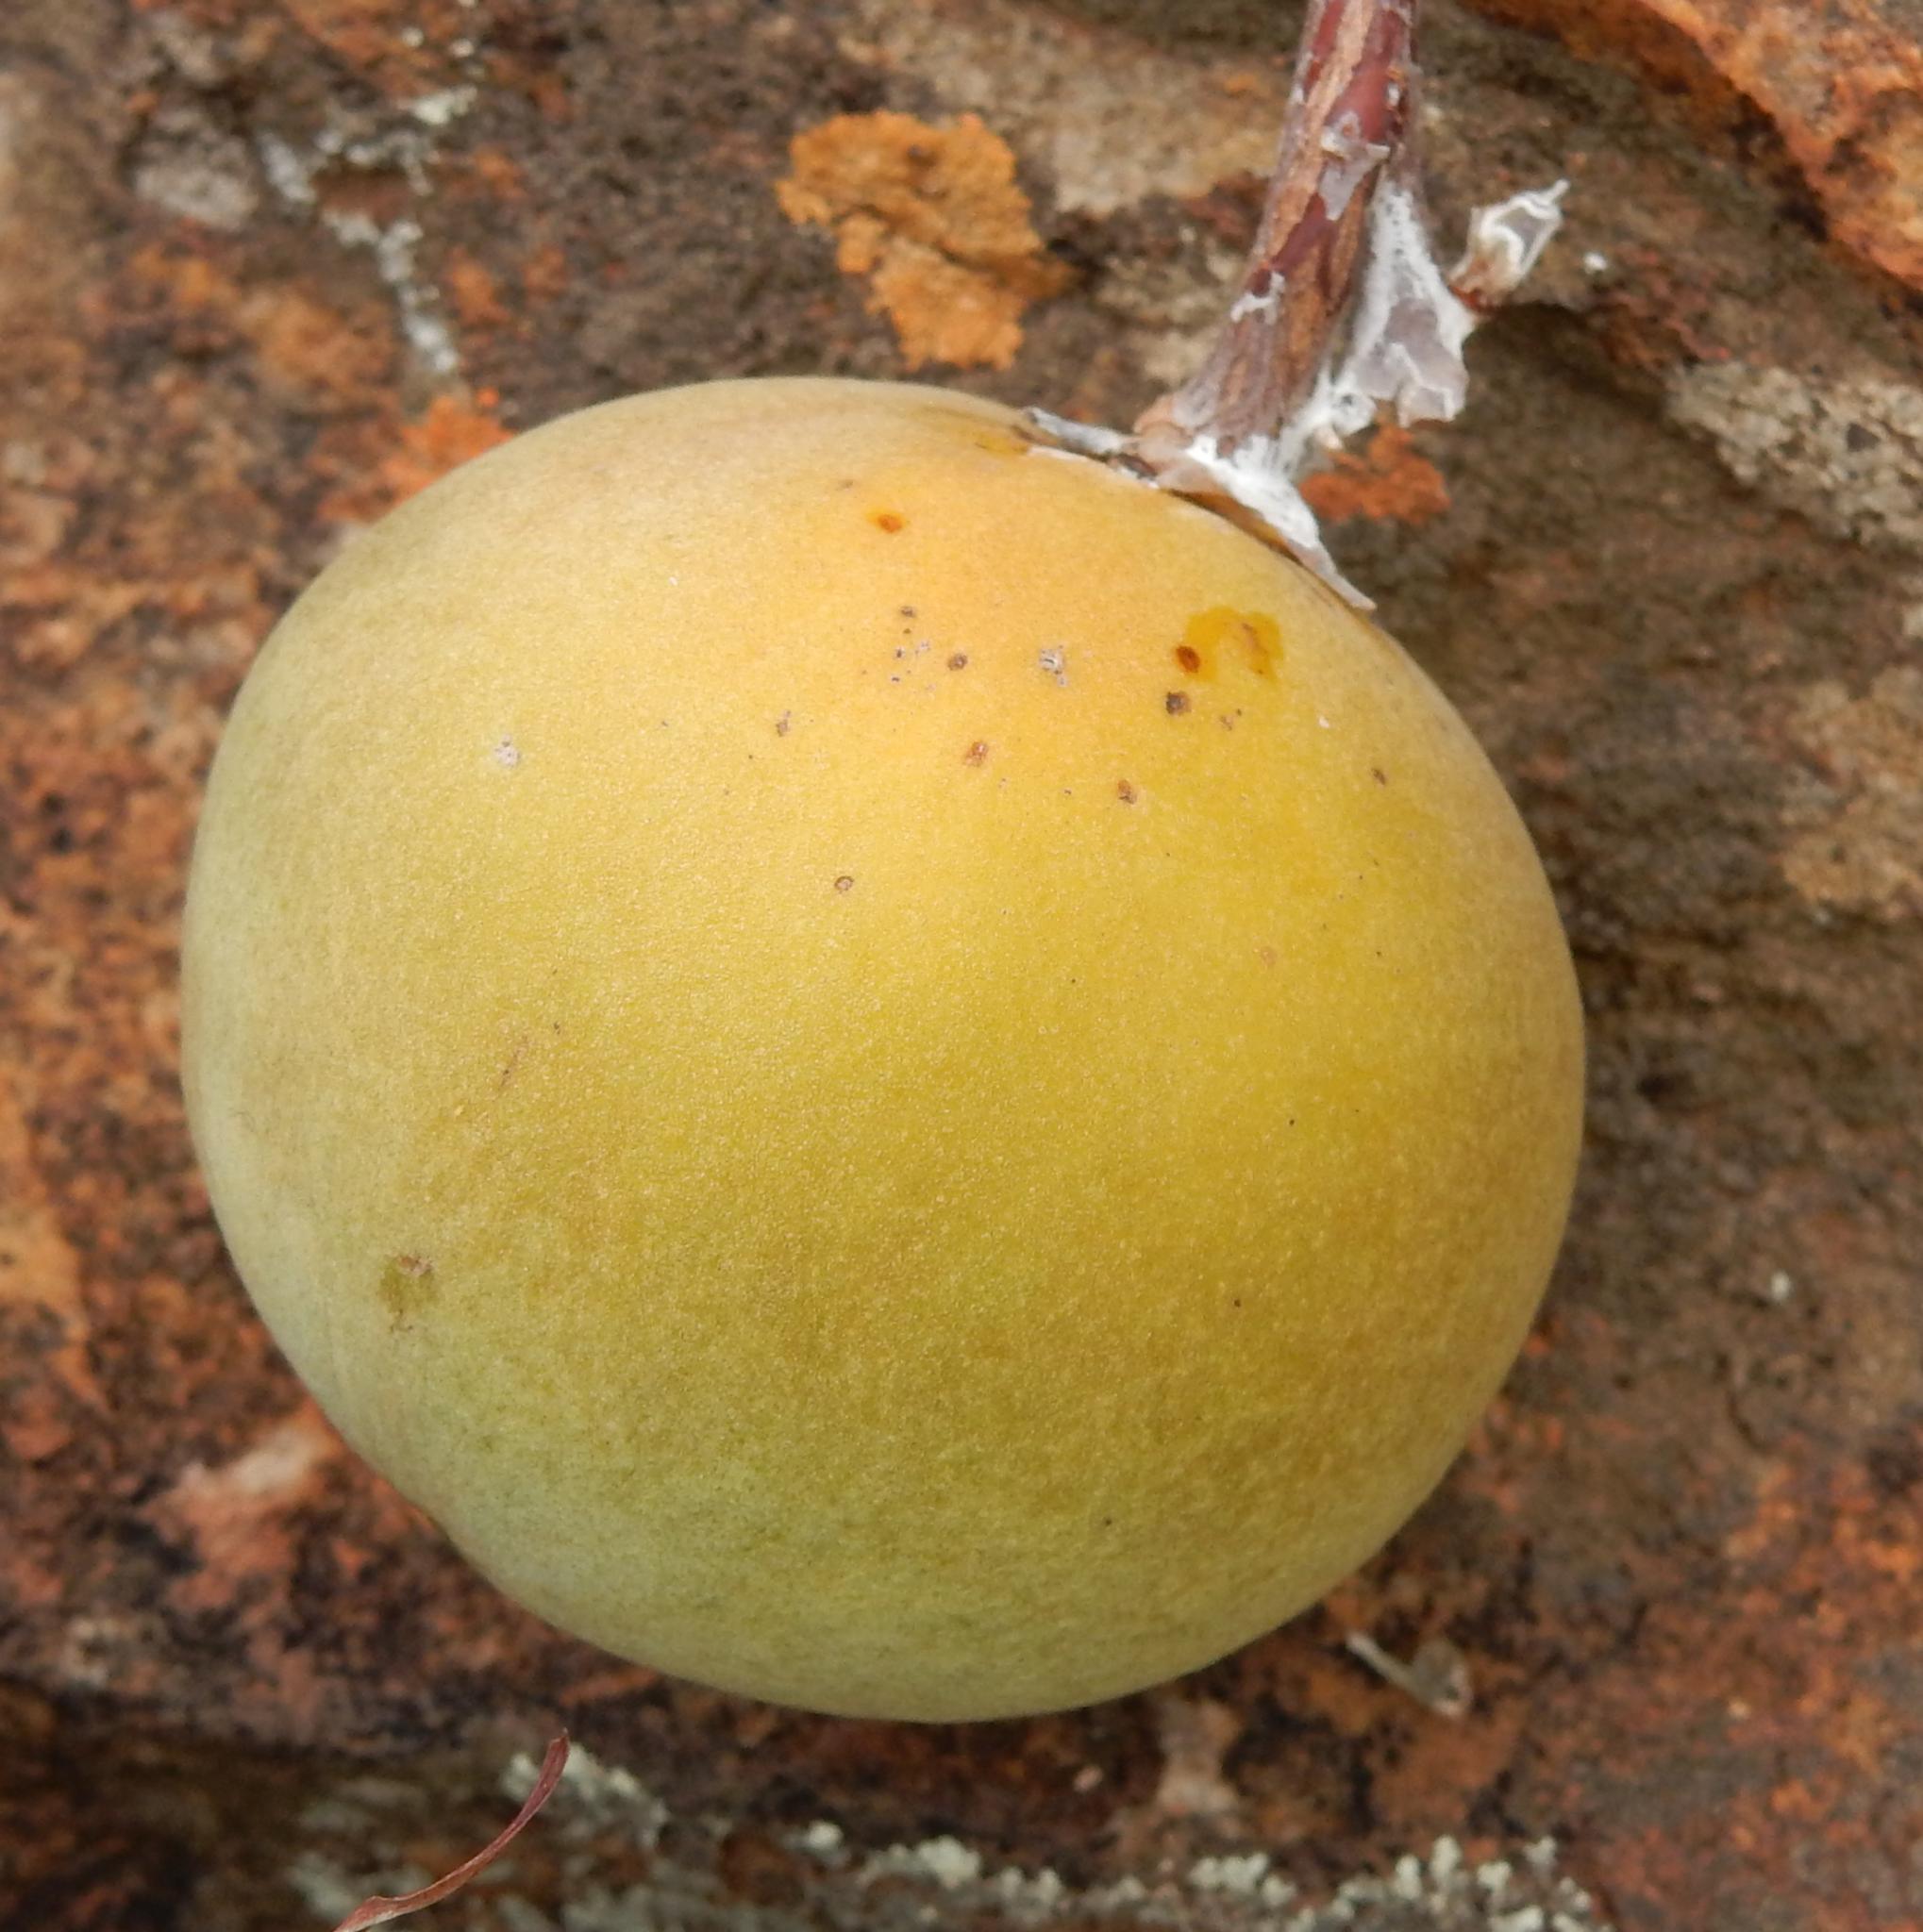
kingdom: Plantae
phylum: Tracheophyta
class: Magnoliopsida
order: Gentianales
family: Apocynaceae
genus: Ancylobothrys
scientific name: Ancylobothrys capensis
